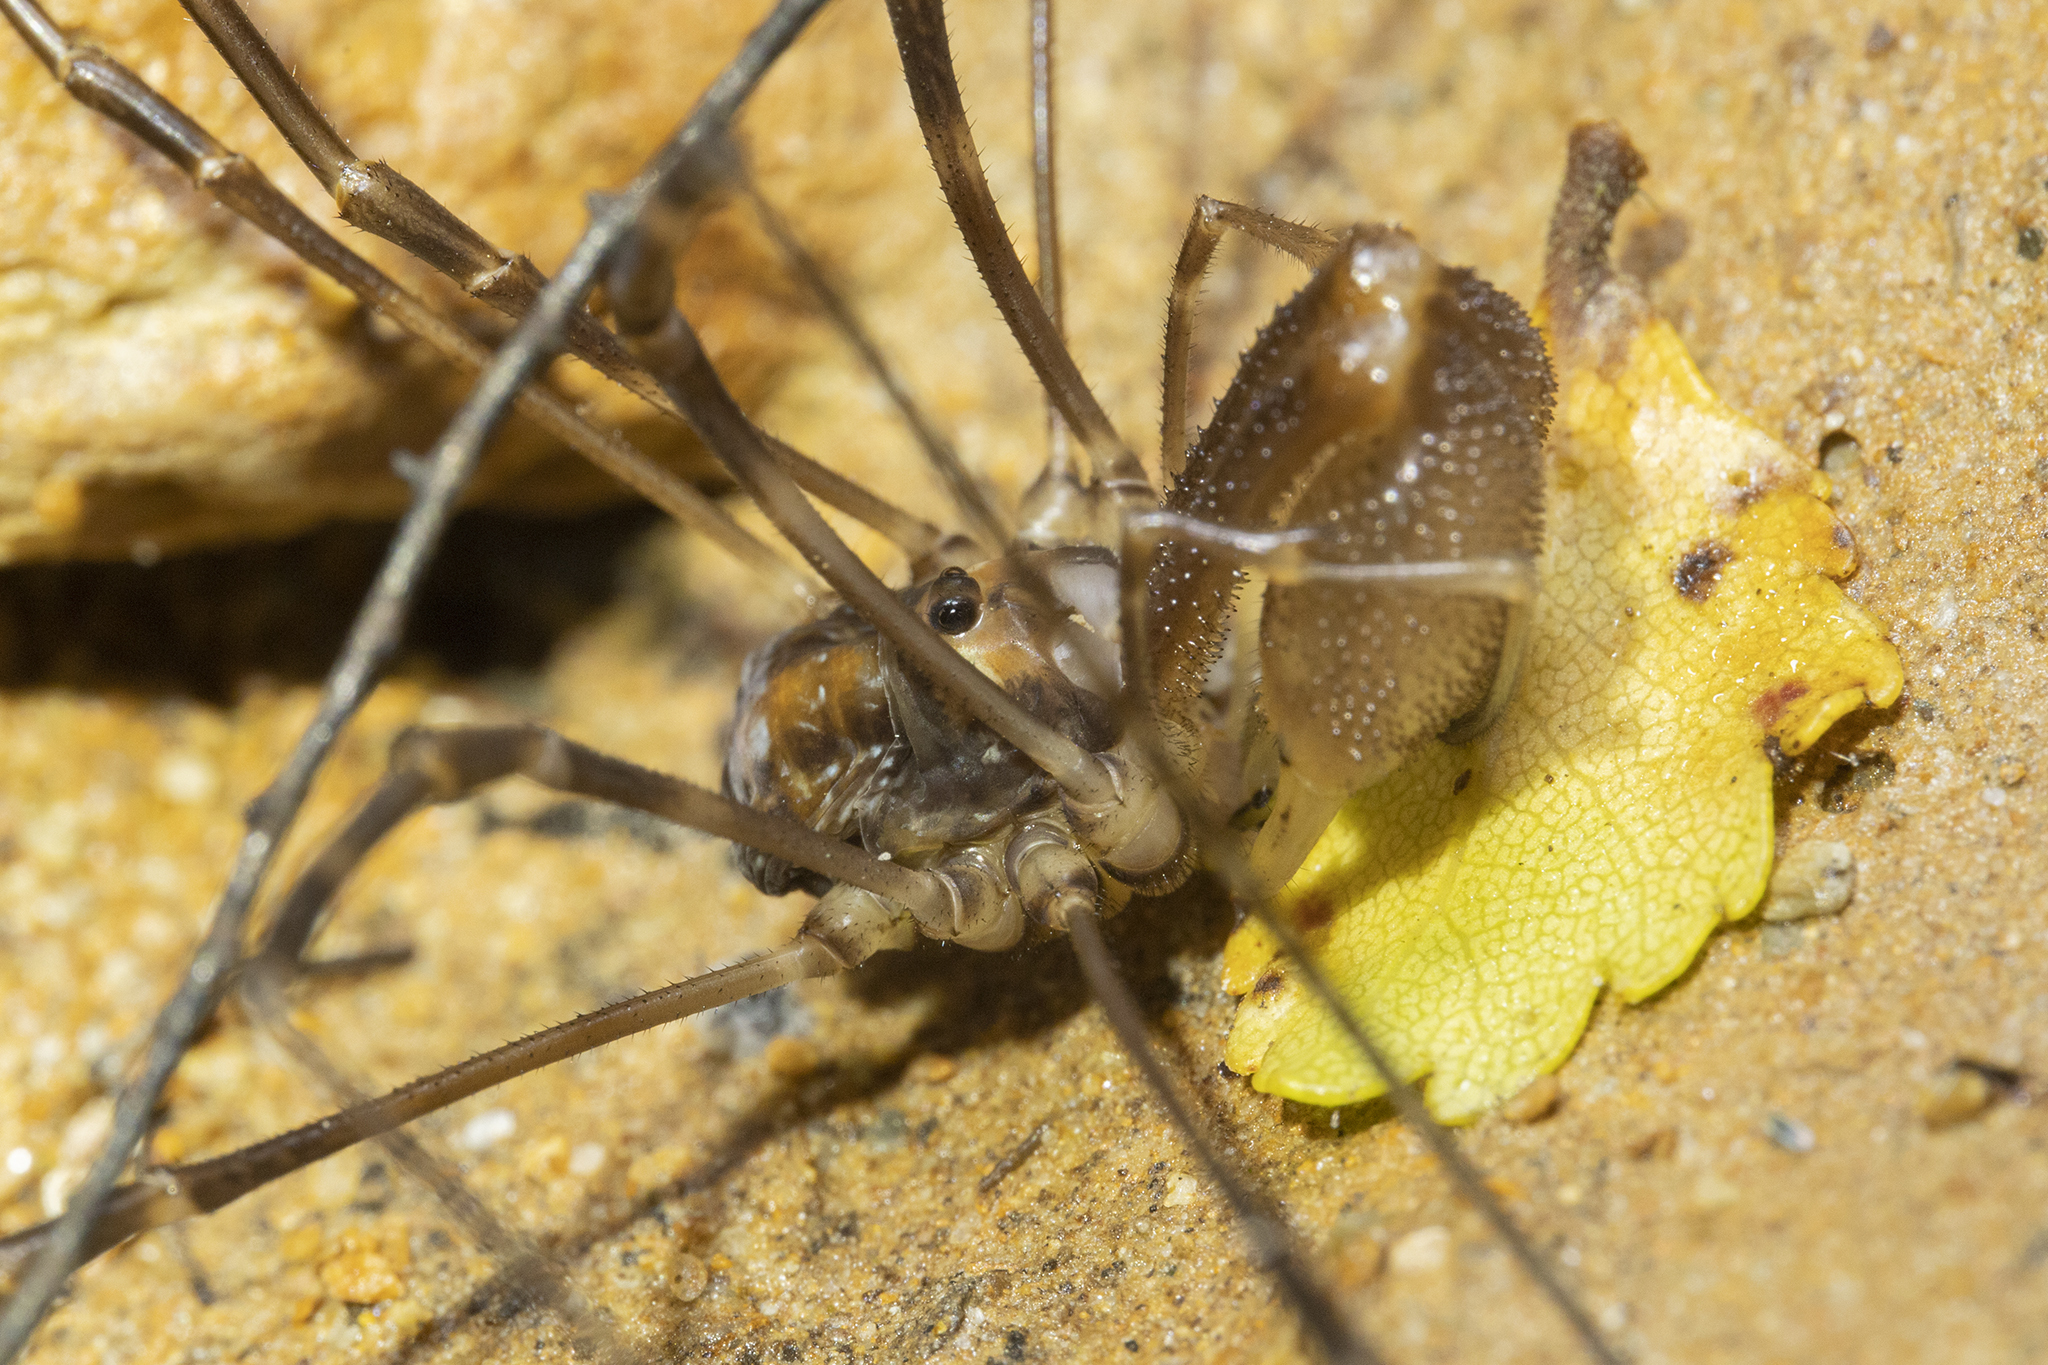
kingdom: Animalia
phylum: Arthropoda
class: Arachnida
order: Opiliones
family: Neopilionidae
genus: Forsteropsalis
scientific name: Forsteropsalis fabulosa
